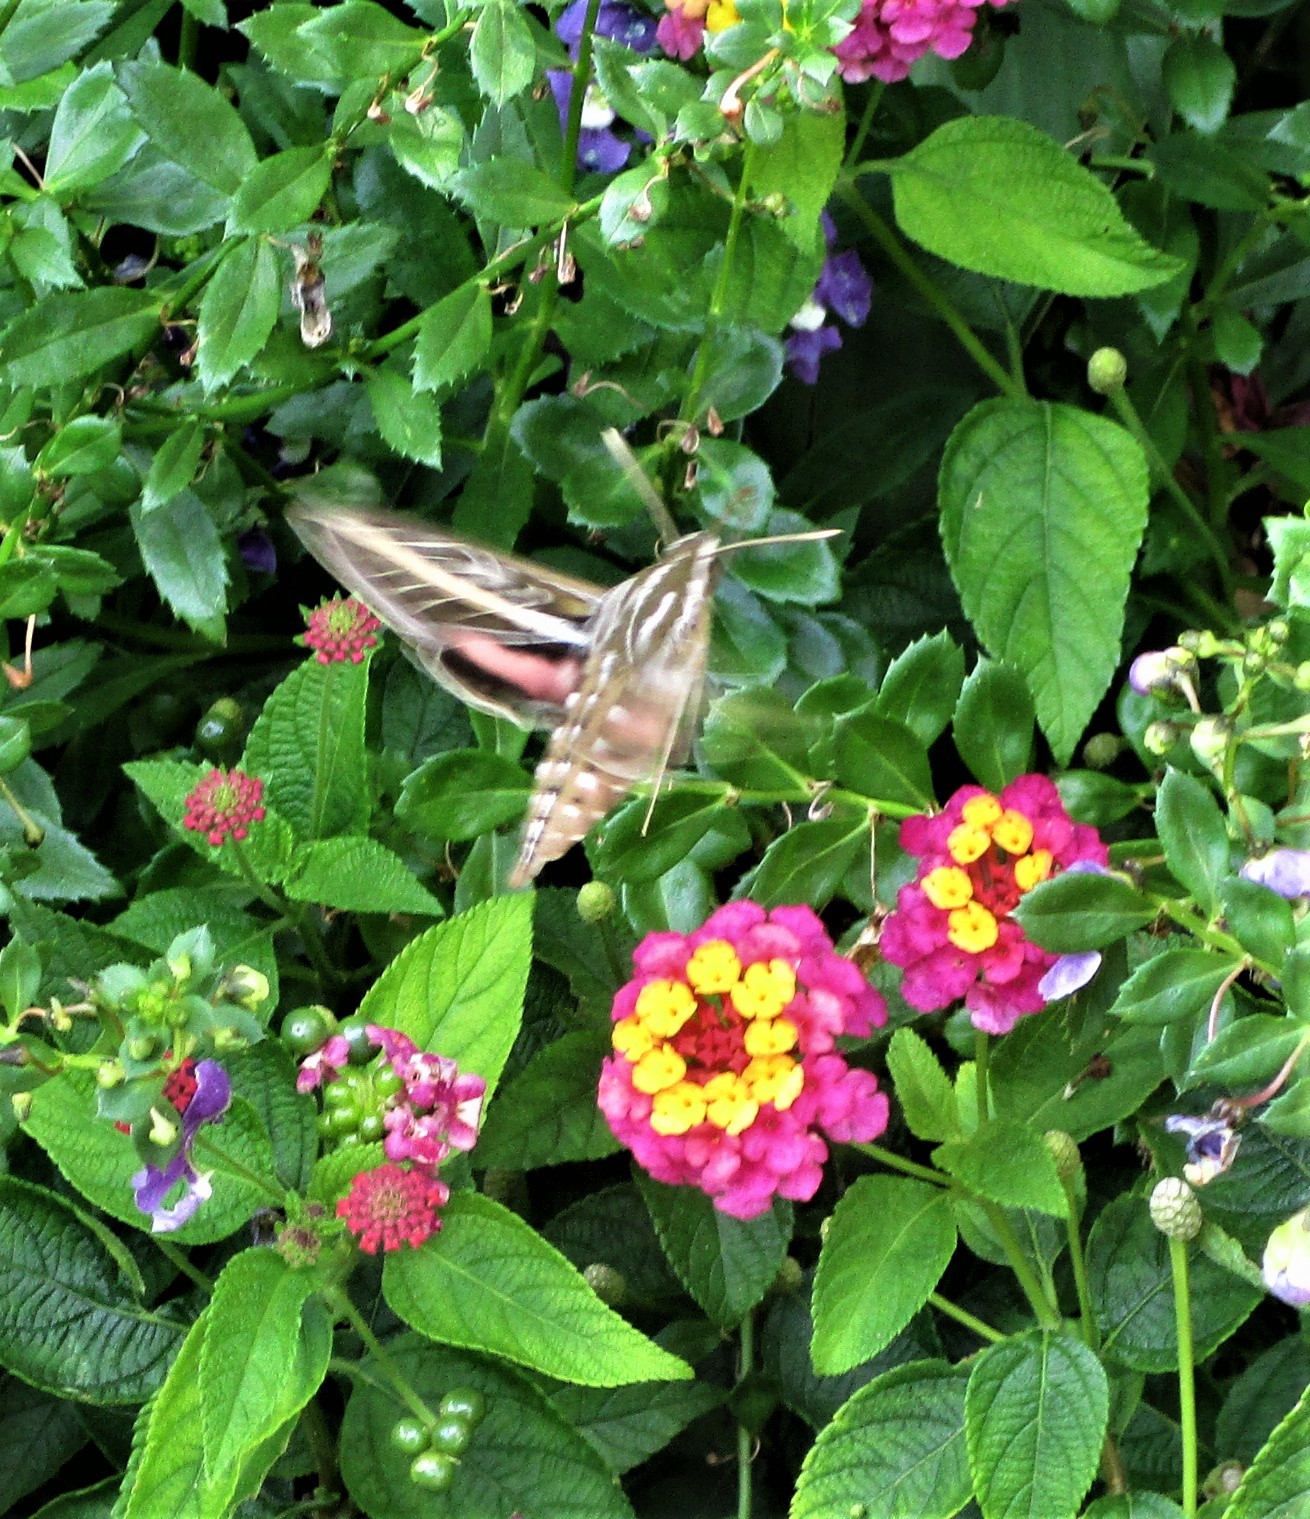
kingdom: Animalia
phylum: Arthropoda
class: Insecta
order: Lepidoptera
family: Sphingidae
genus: Hyles
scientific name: Hyles lineata
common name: White-lined sphinx
